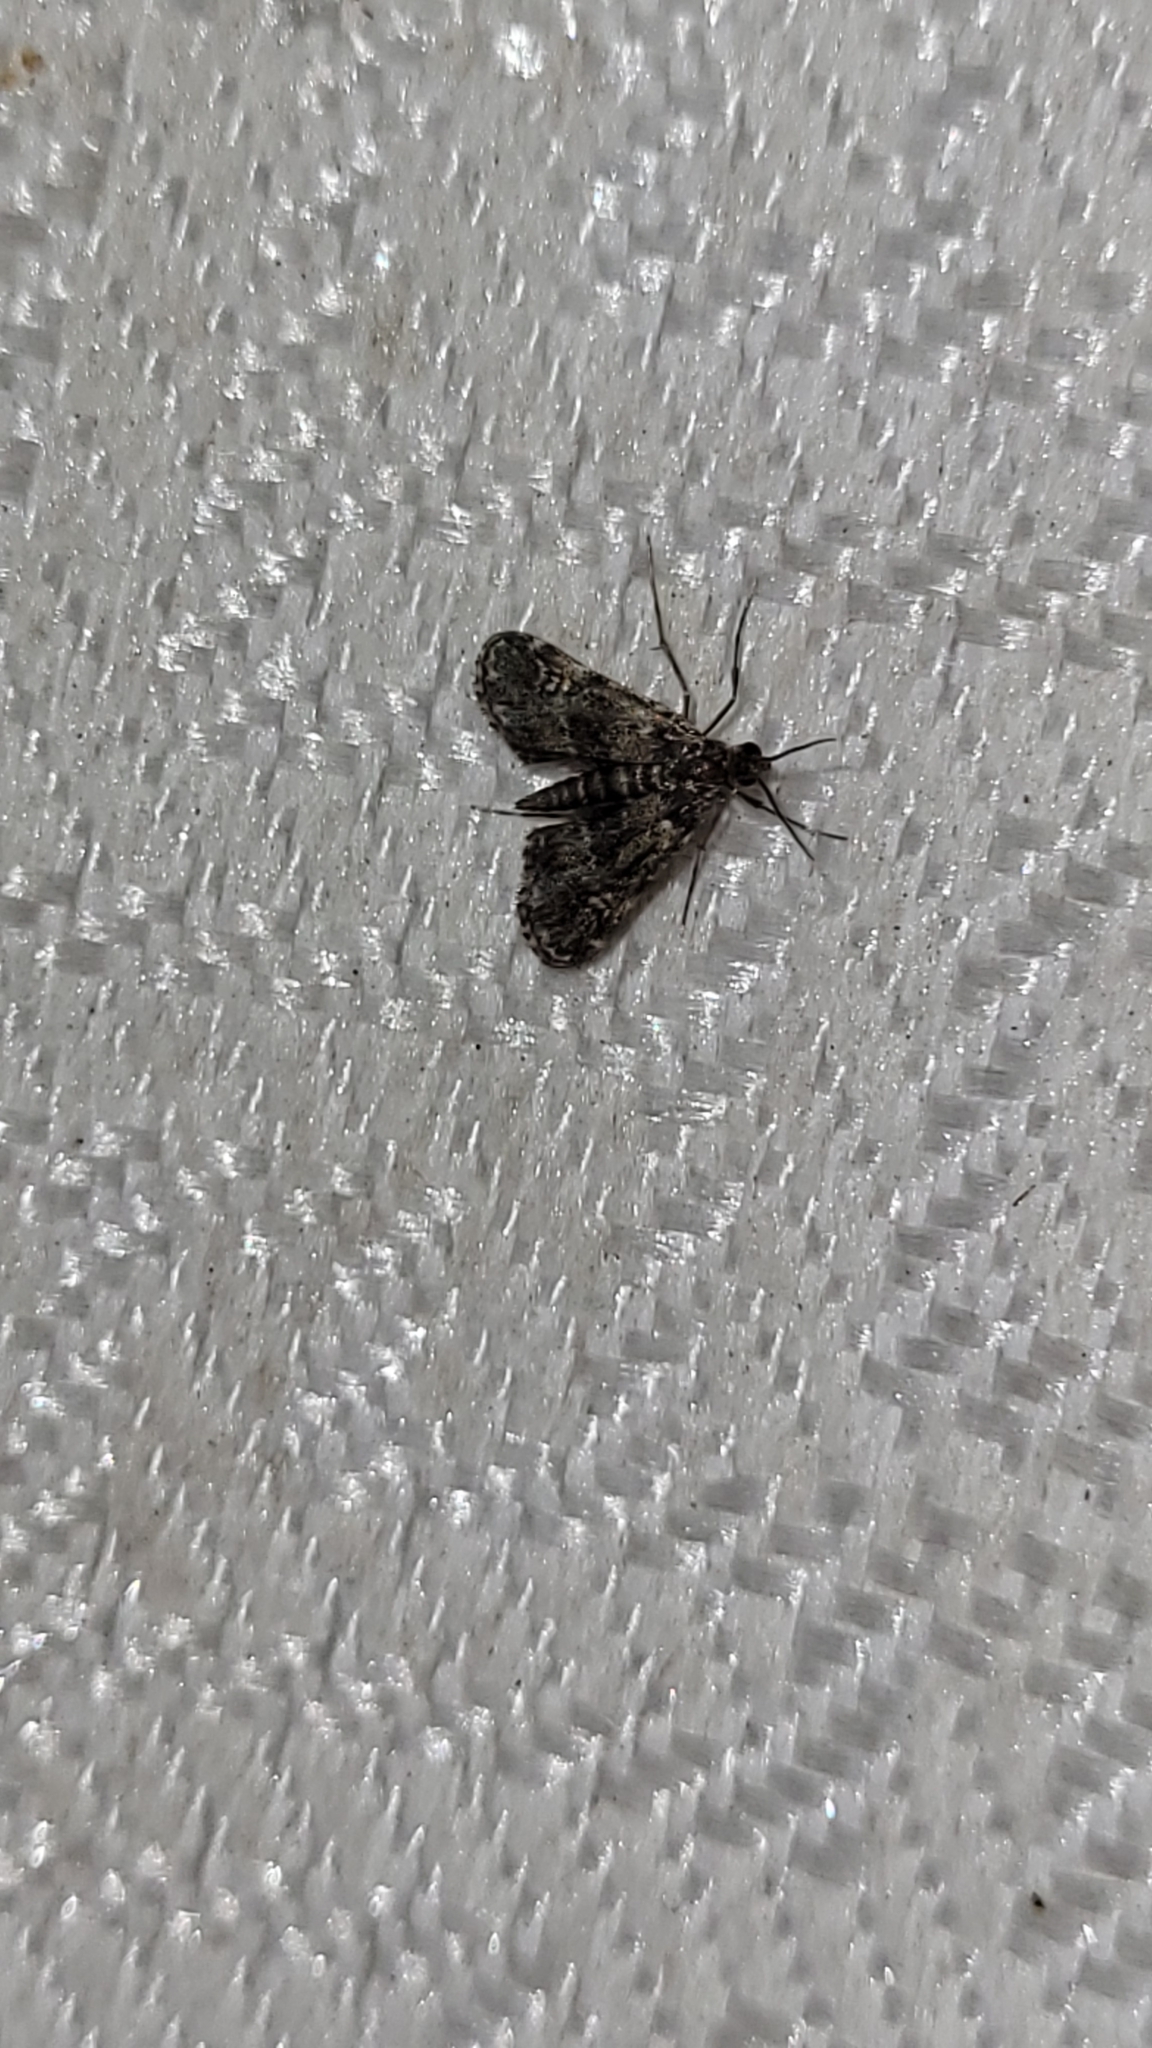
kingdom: Animalia
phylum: Arthropoda
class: Insecta
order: Lepidoptera
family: Crambidae
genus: Elophila
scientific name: Elophila obliteralis
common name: Waterlily leafcutter moth
